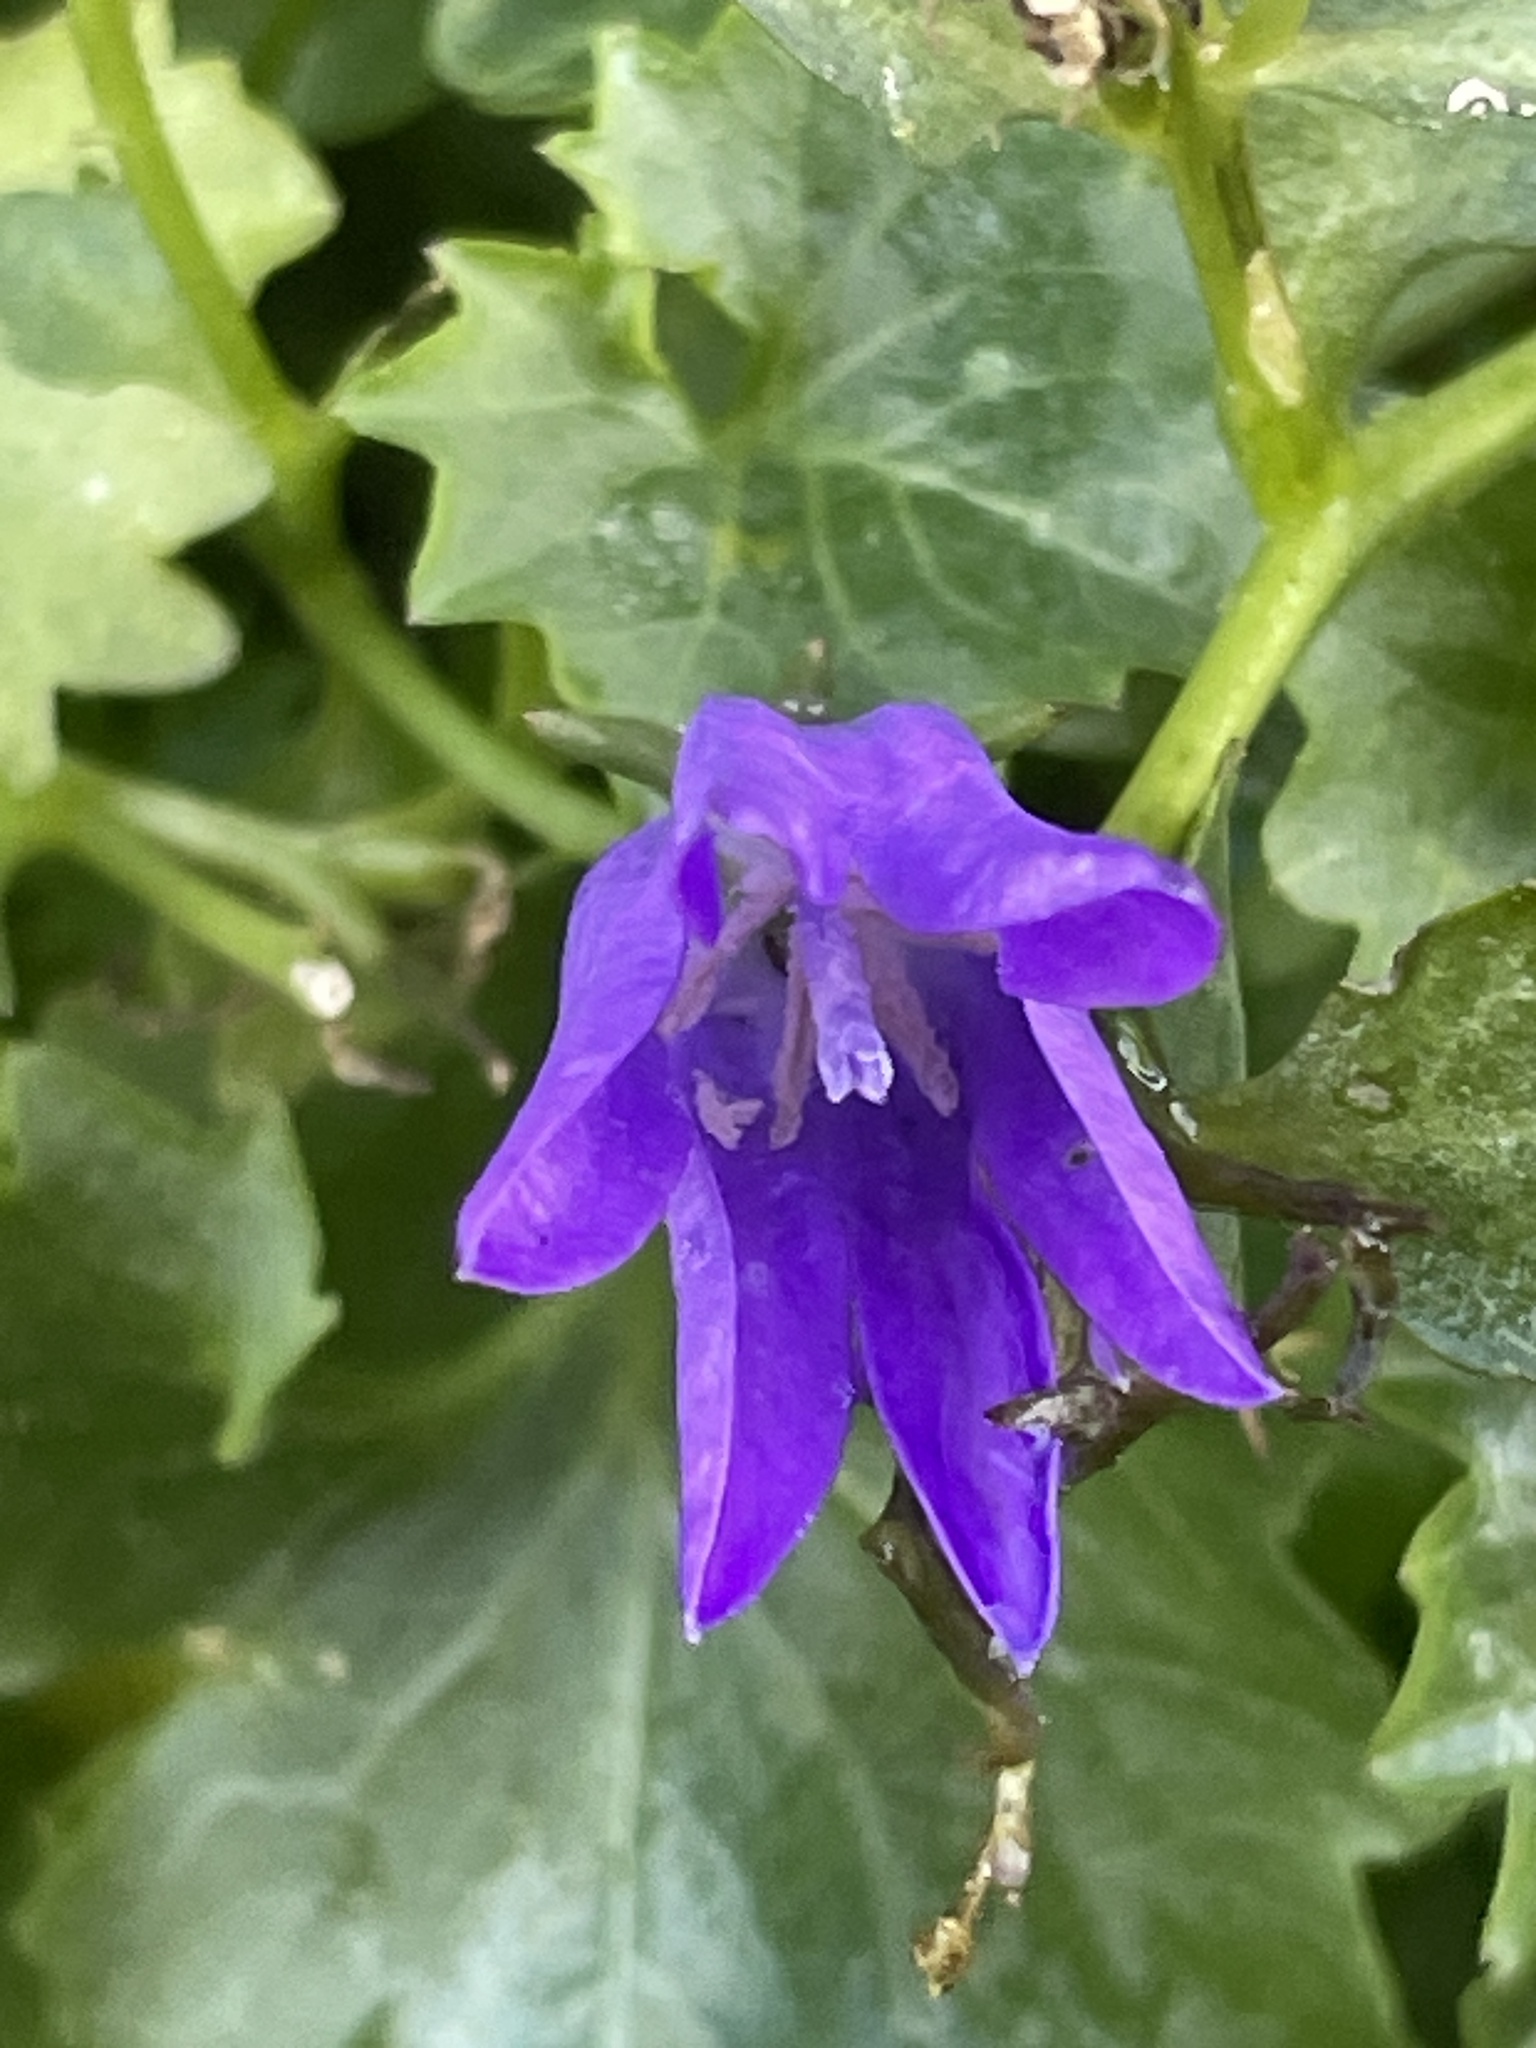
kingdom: Plantae
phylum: Tracheophyta
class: Magnoliopsida
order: Asterales
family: Campanulaceae
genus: Campanula
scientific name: Campanula portenschlagiana
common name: Adria bellflower
